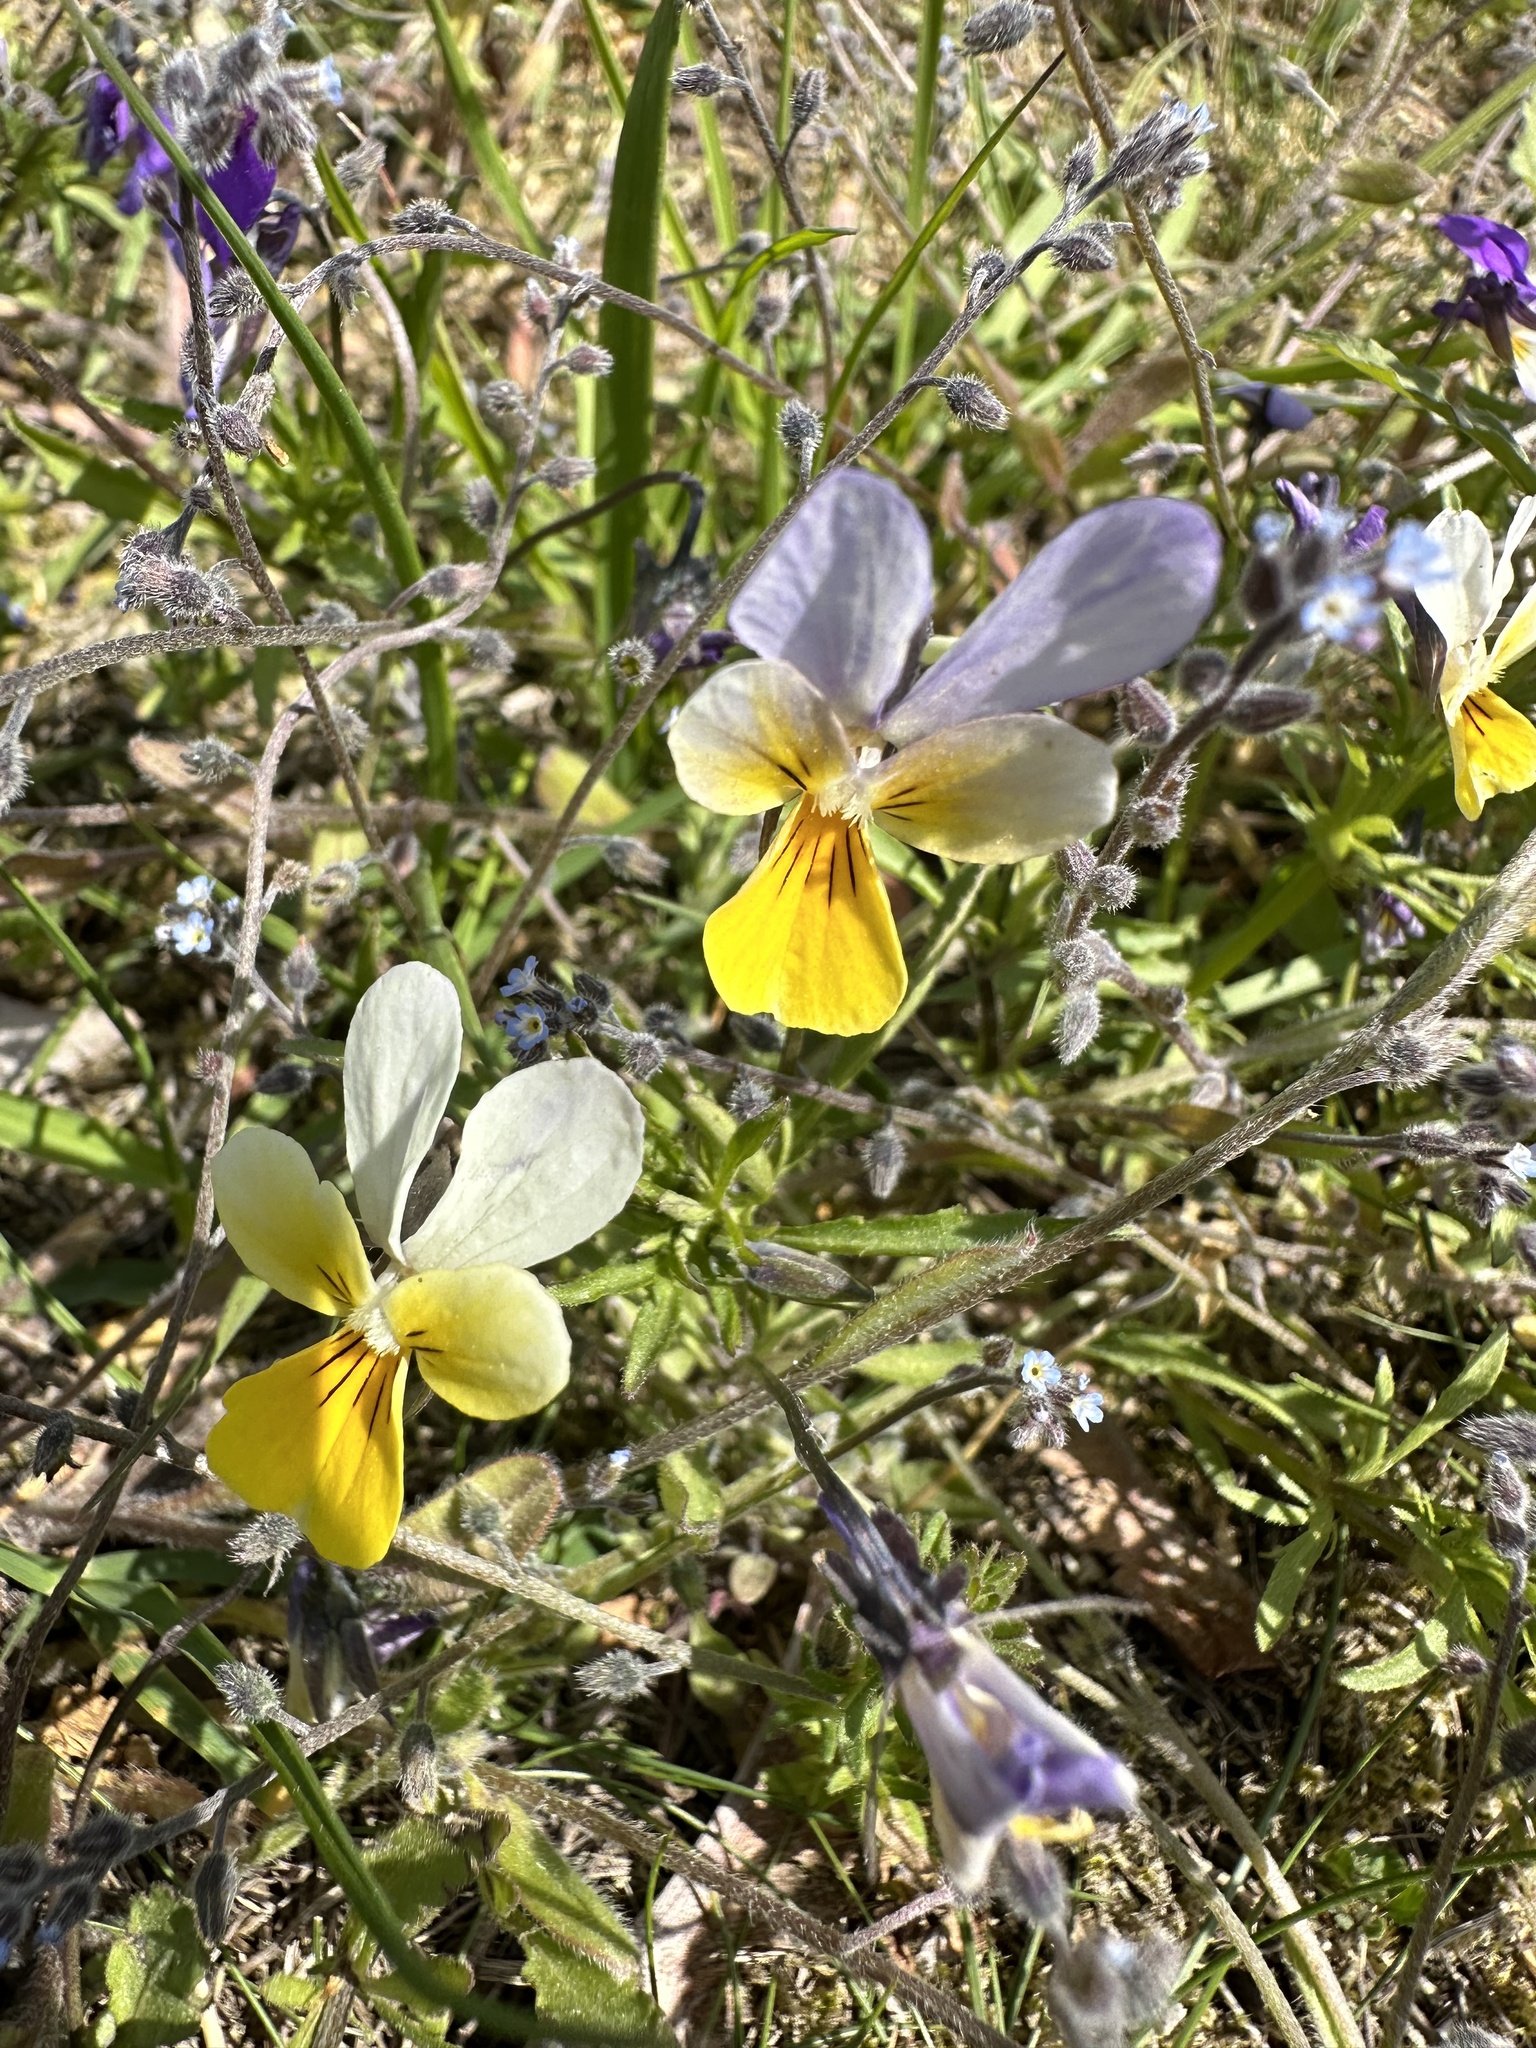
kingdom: Plantae
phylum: Tracheophyta
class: Magnoliopsida
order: Malpighiales
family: Violaceae
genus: Viola
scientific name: Viola tricolor
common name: Pansy
